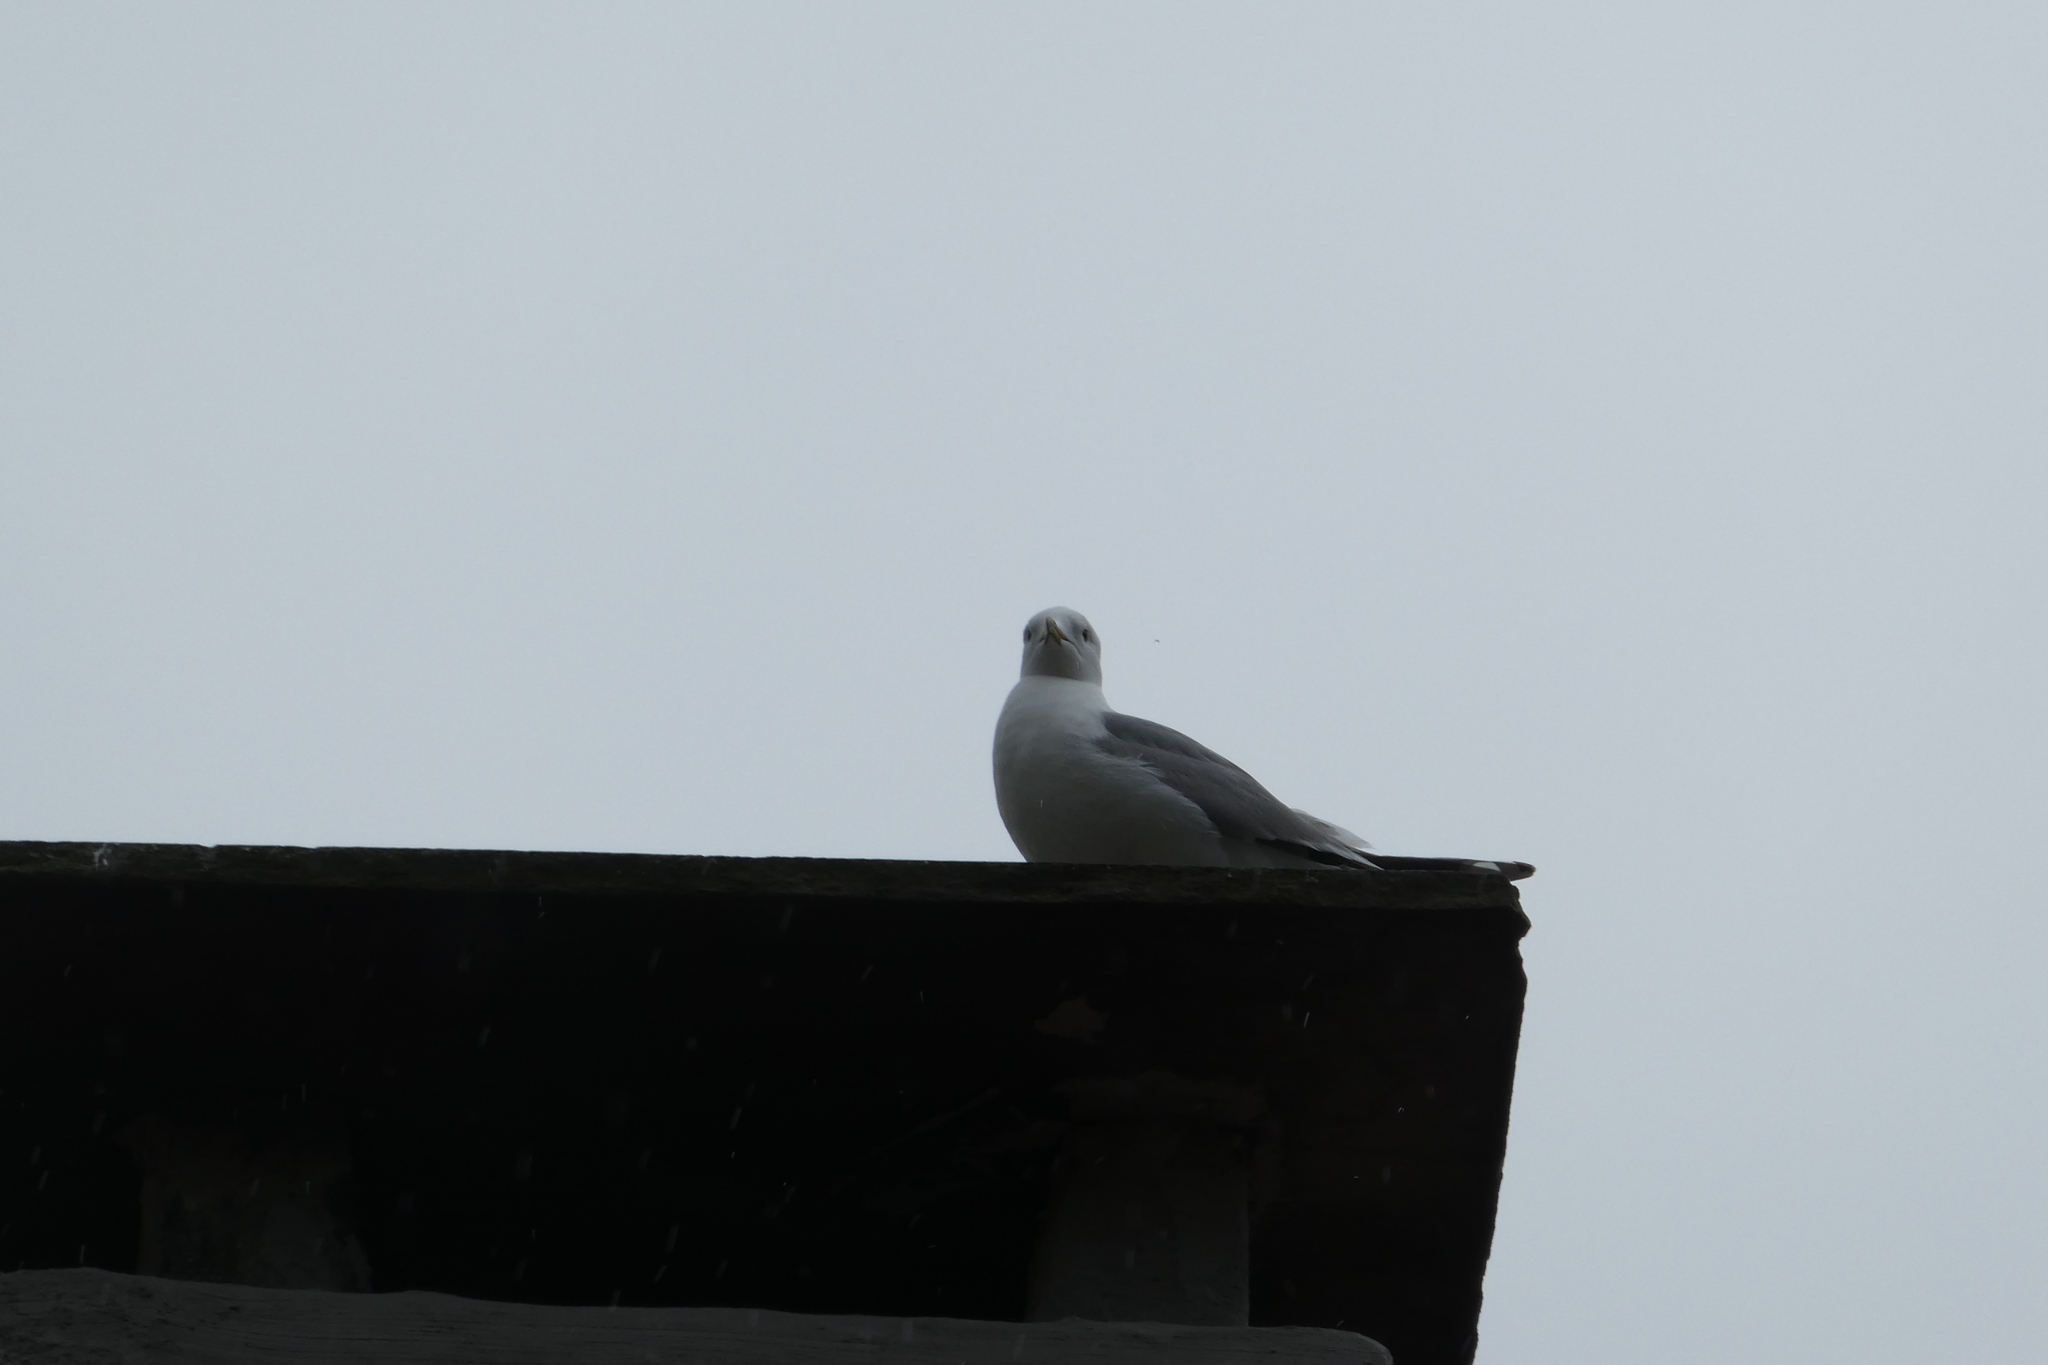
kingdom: Animalia
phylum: Chordata
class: Aves
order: Charadriiformes
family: Laridae
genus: Larus
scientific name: Larus canus
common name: Mew gull
